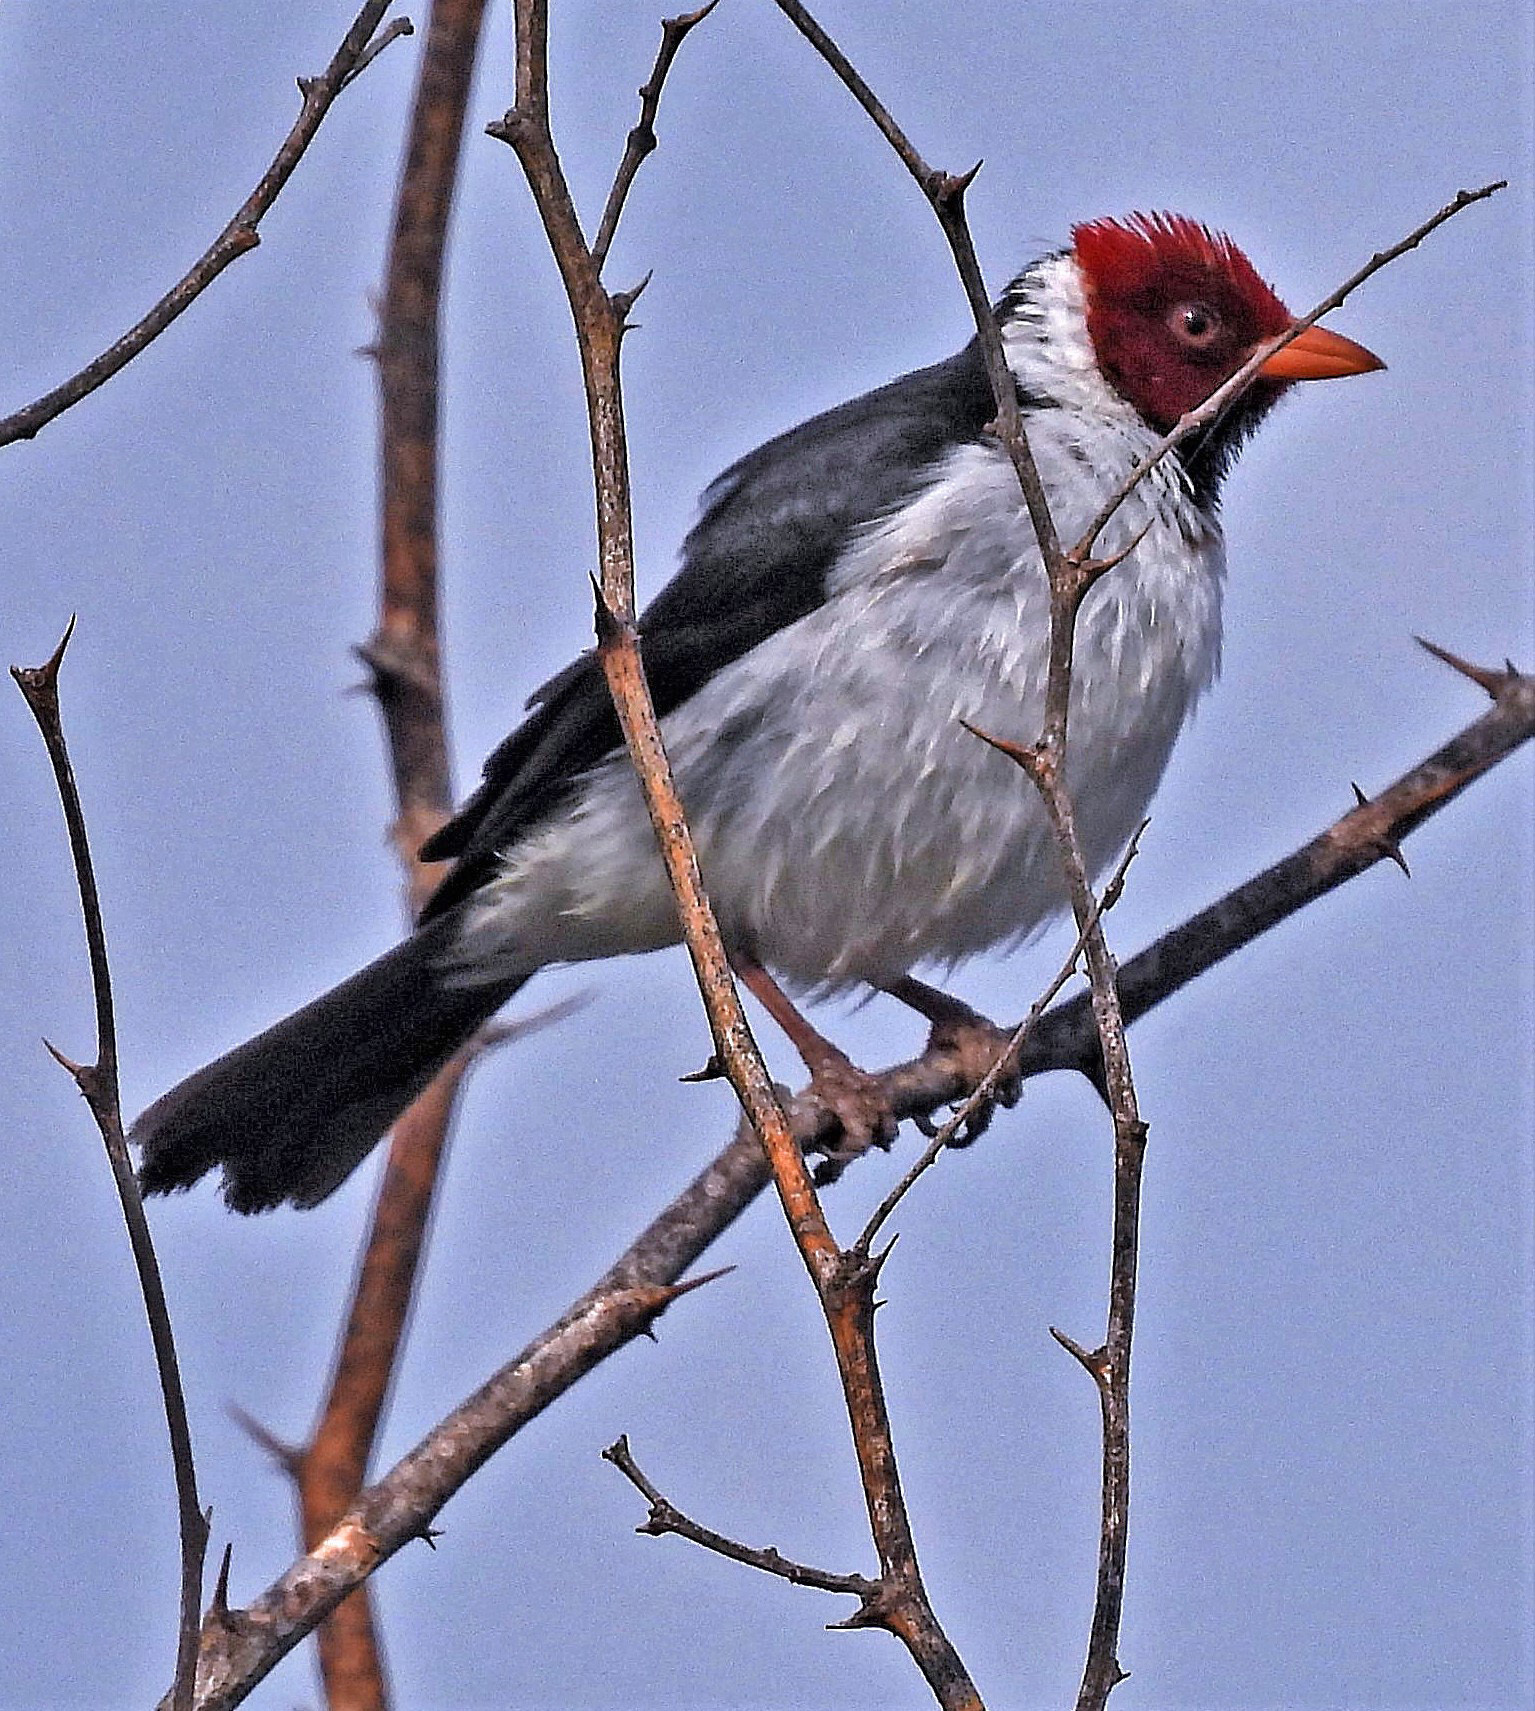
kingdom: Animalia
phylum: Chordata
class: Aves
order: Passeriformes
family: Thraupidae
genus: Paroaria
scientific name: Paroaria capitata
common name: Yellow-billed cardinal
